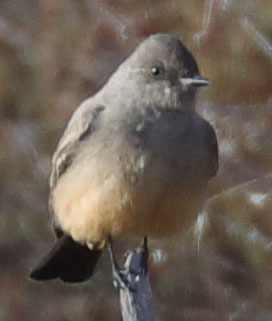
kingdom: Animalia
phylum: Chordata
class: Aves
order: Passeriformes
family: Tyrannidae
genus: Sayornis
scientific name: Sayornis saya
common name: Say's phoebe
